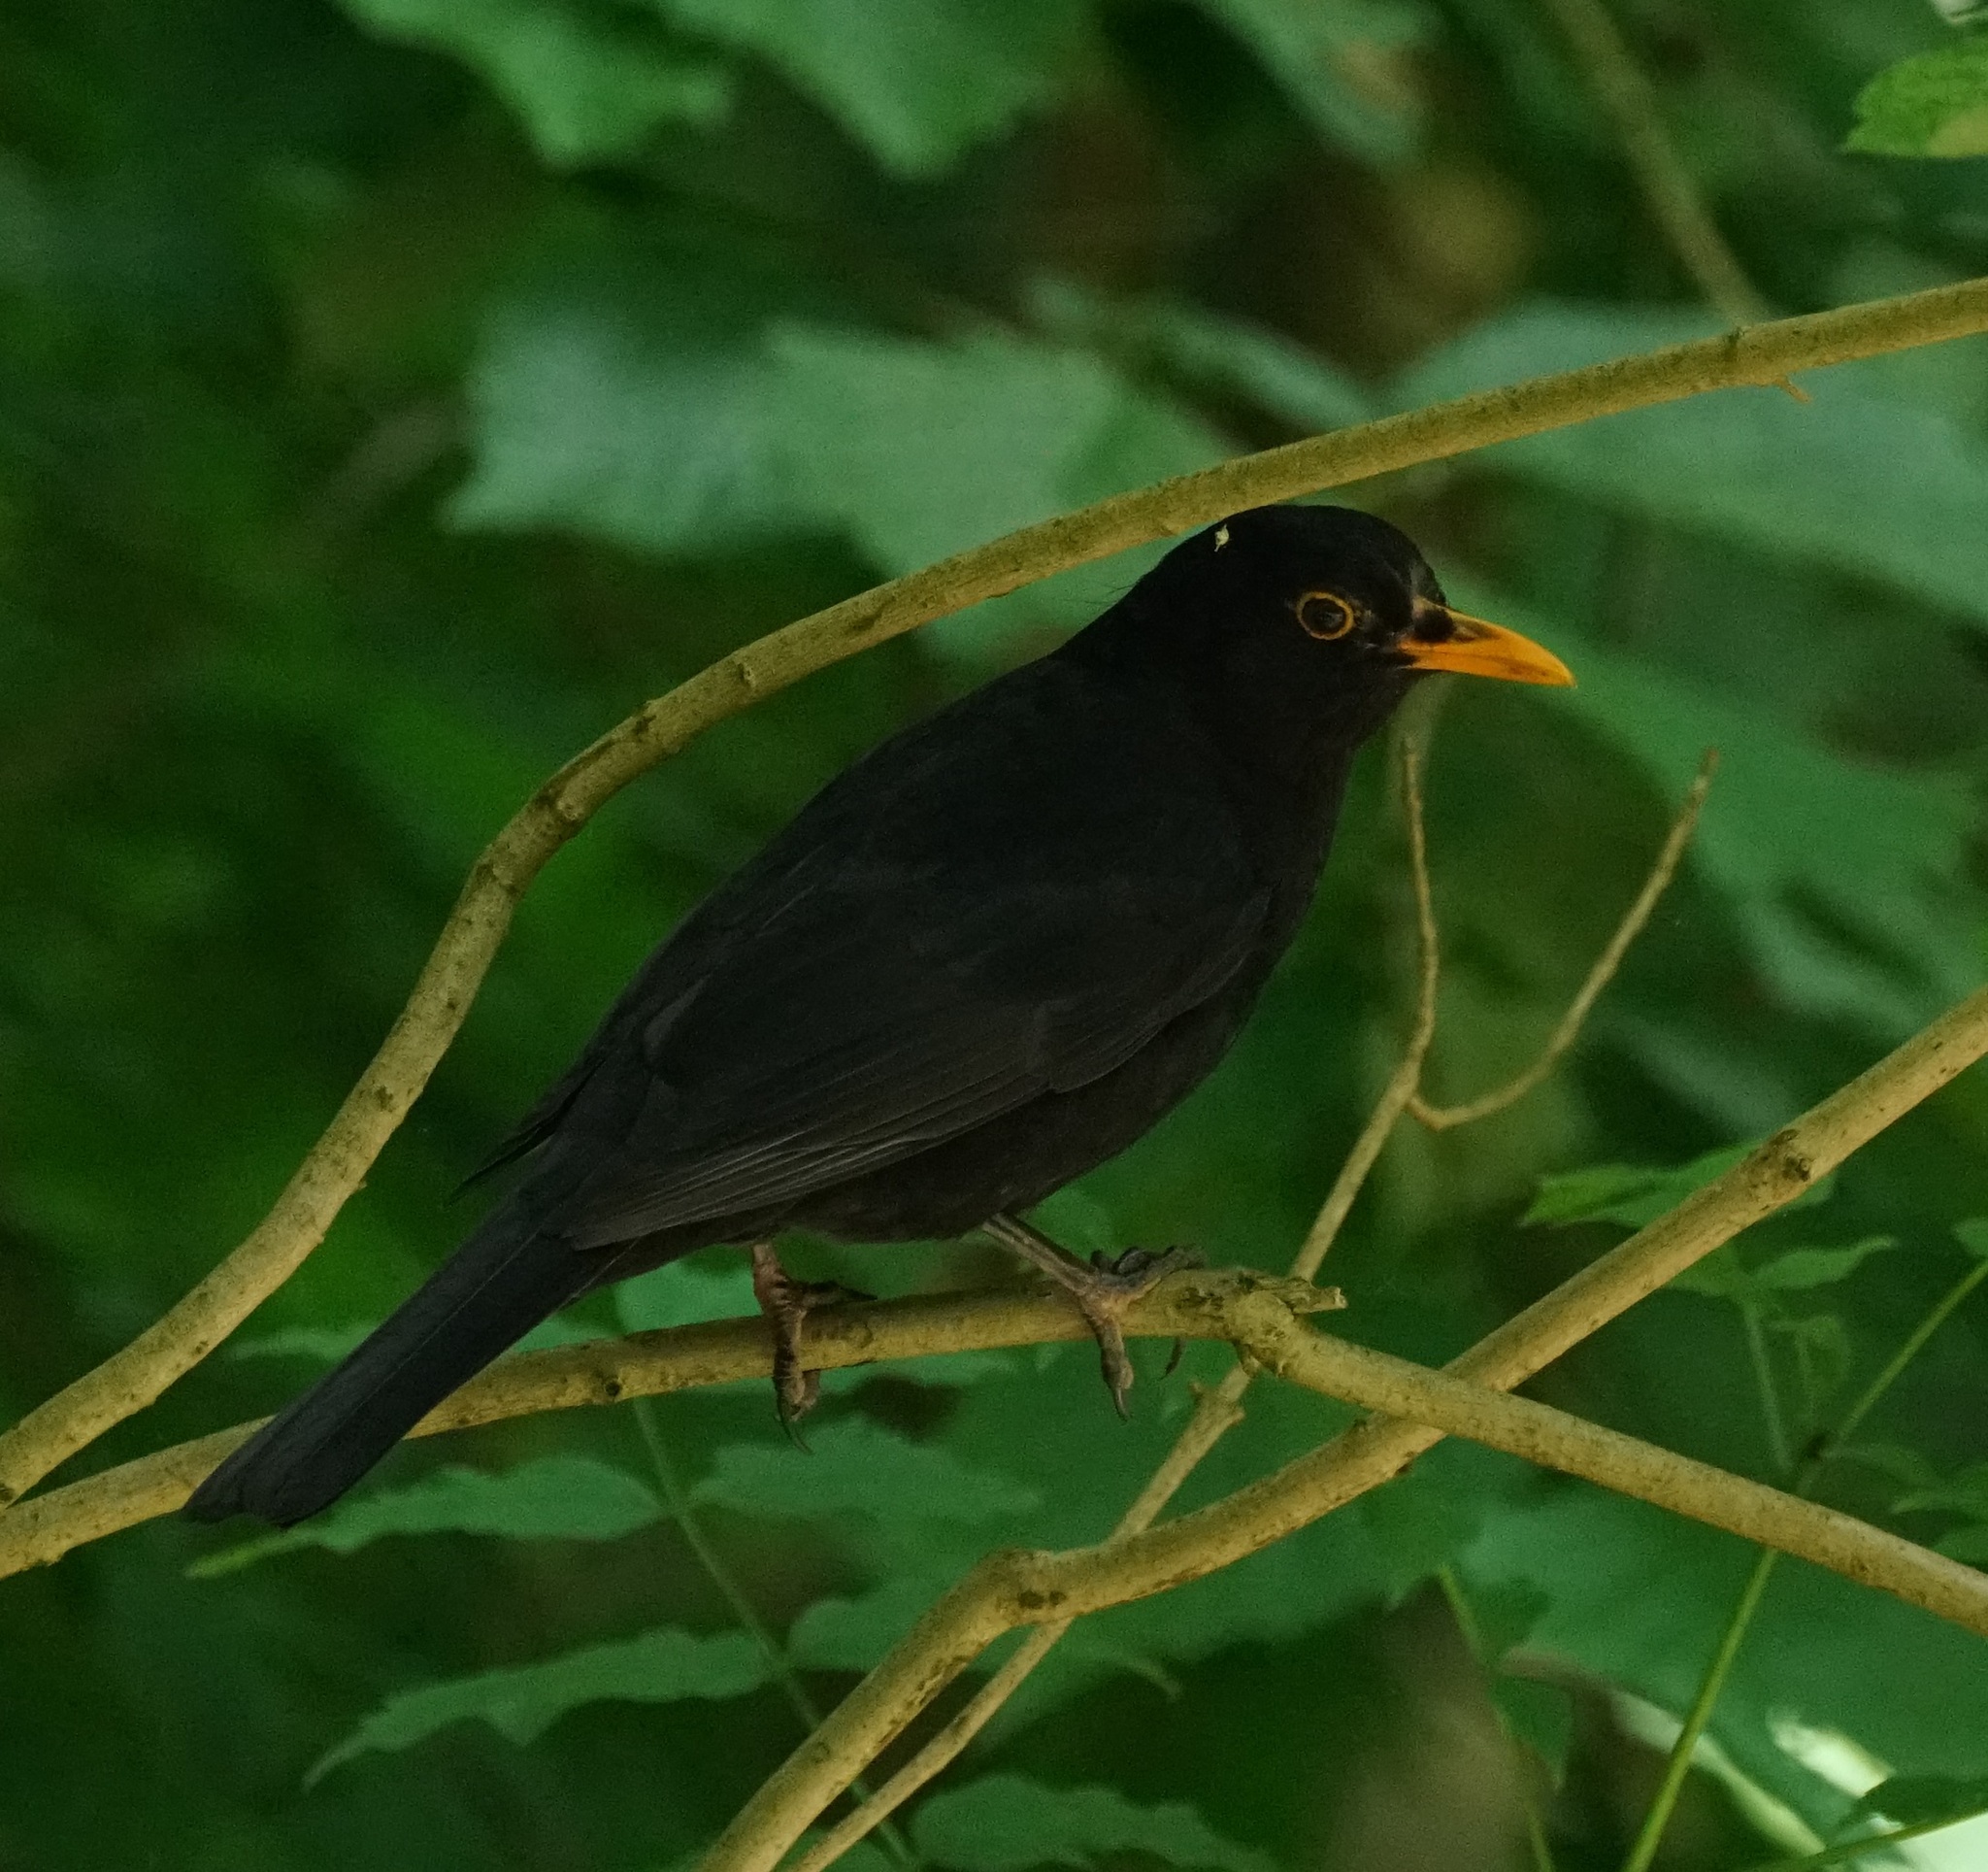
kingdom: Animalia
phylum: Chordata
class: Aves
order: Passeriformes
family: Turdidae
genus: Turdus
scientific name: Turdus merula
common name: Common blackbird
